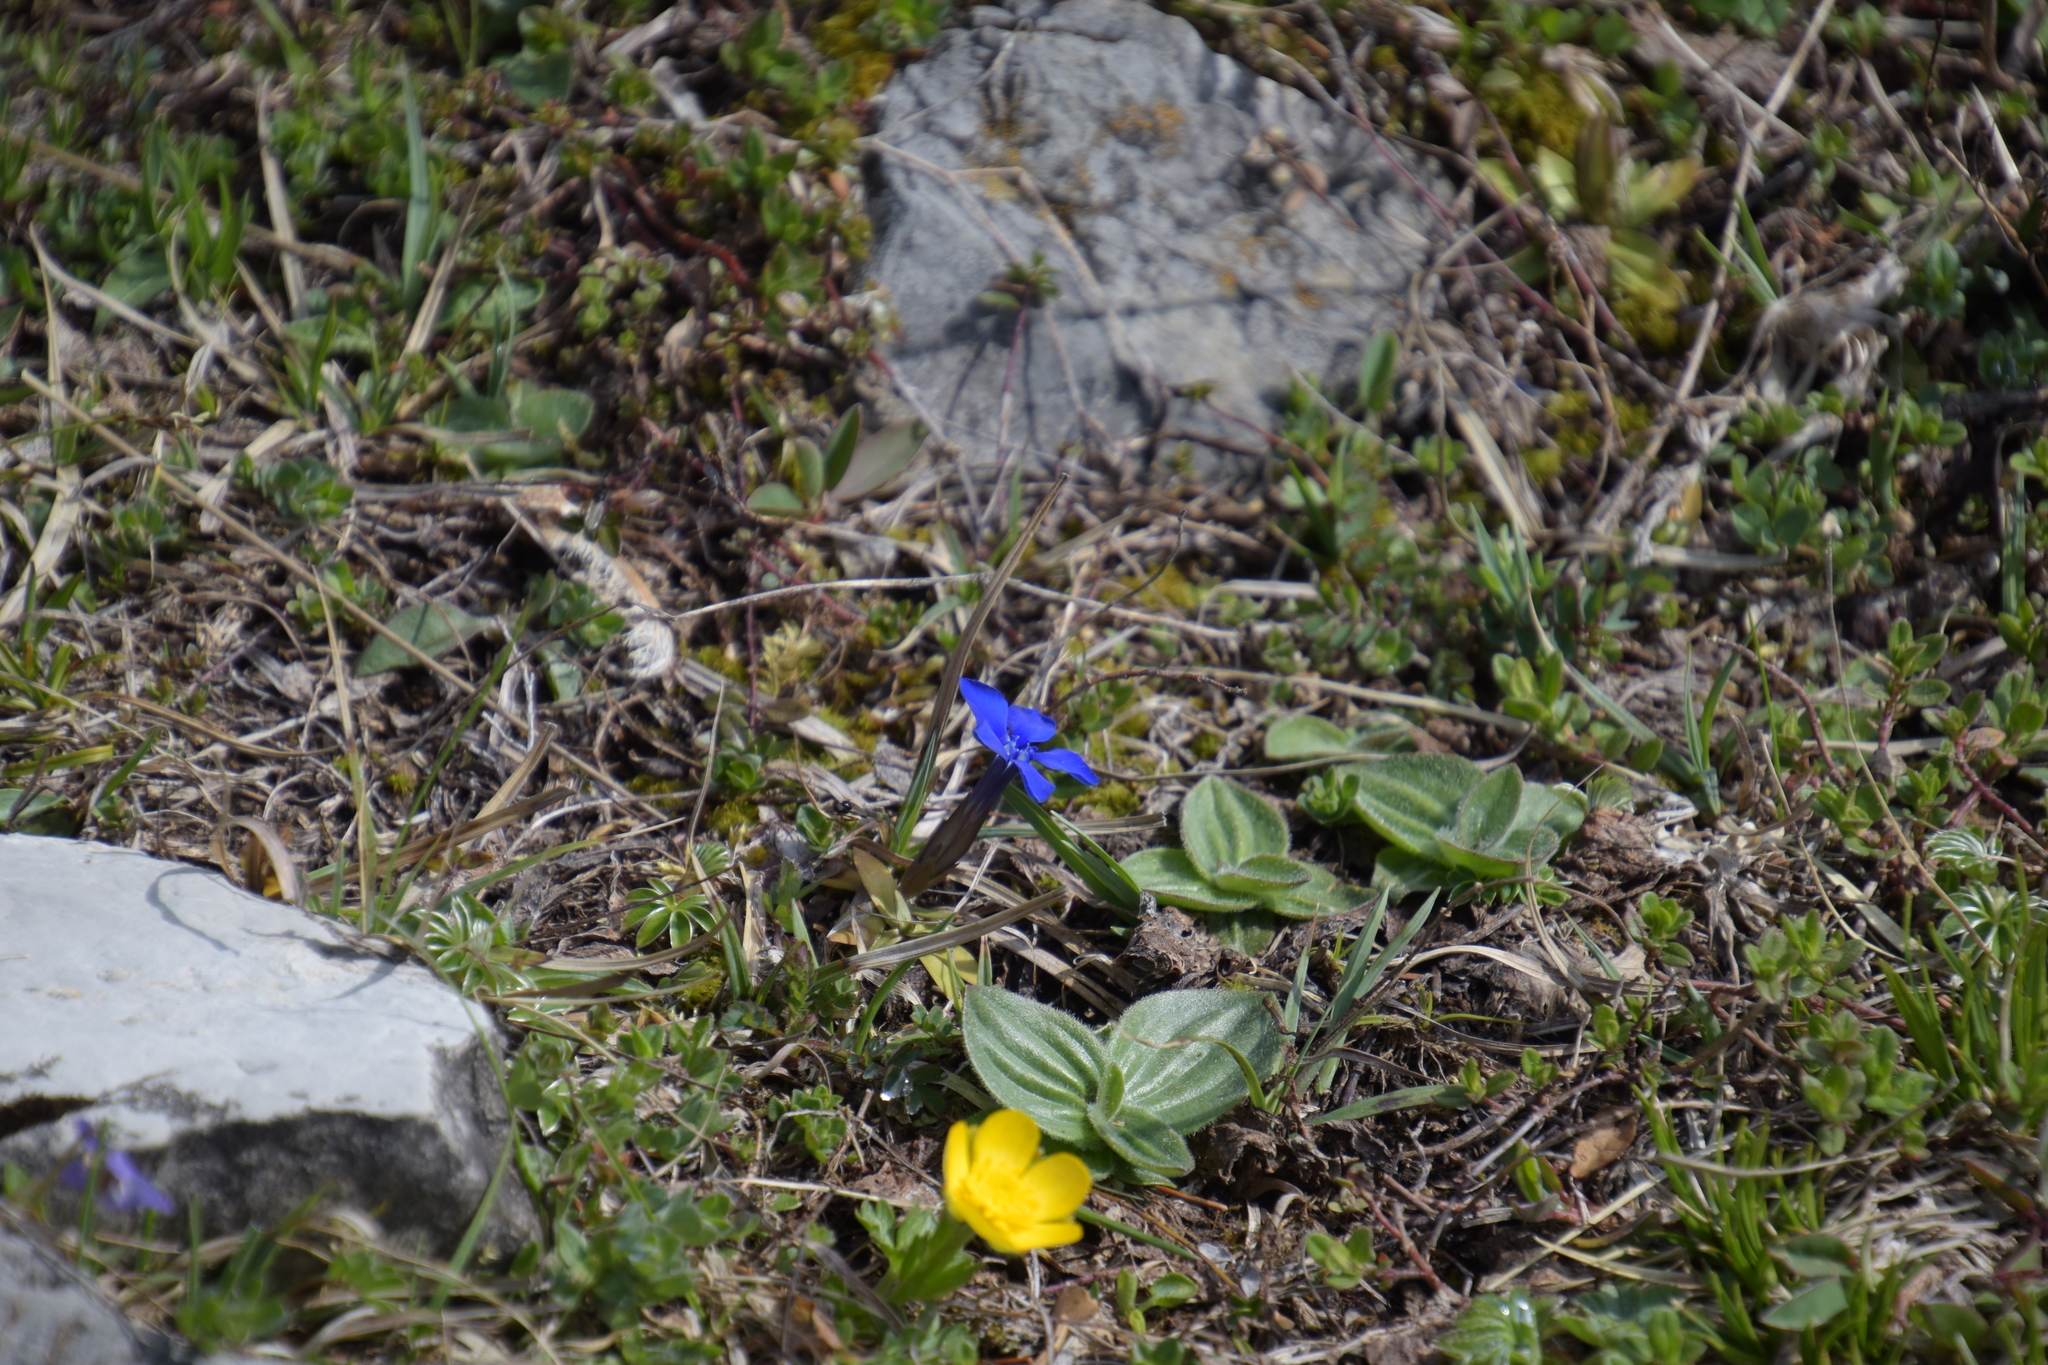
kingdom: Plantae
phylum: Tracheophyta
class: Magnoliopsida
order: Gentianales
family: Gentianaceae
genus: Gentiana
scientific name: Gentiana verna
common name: Spring gentian
